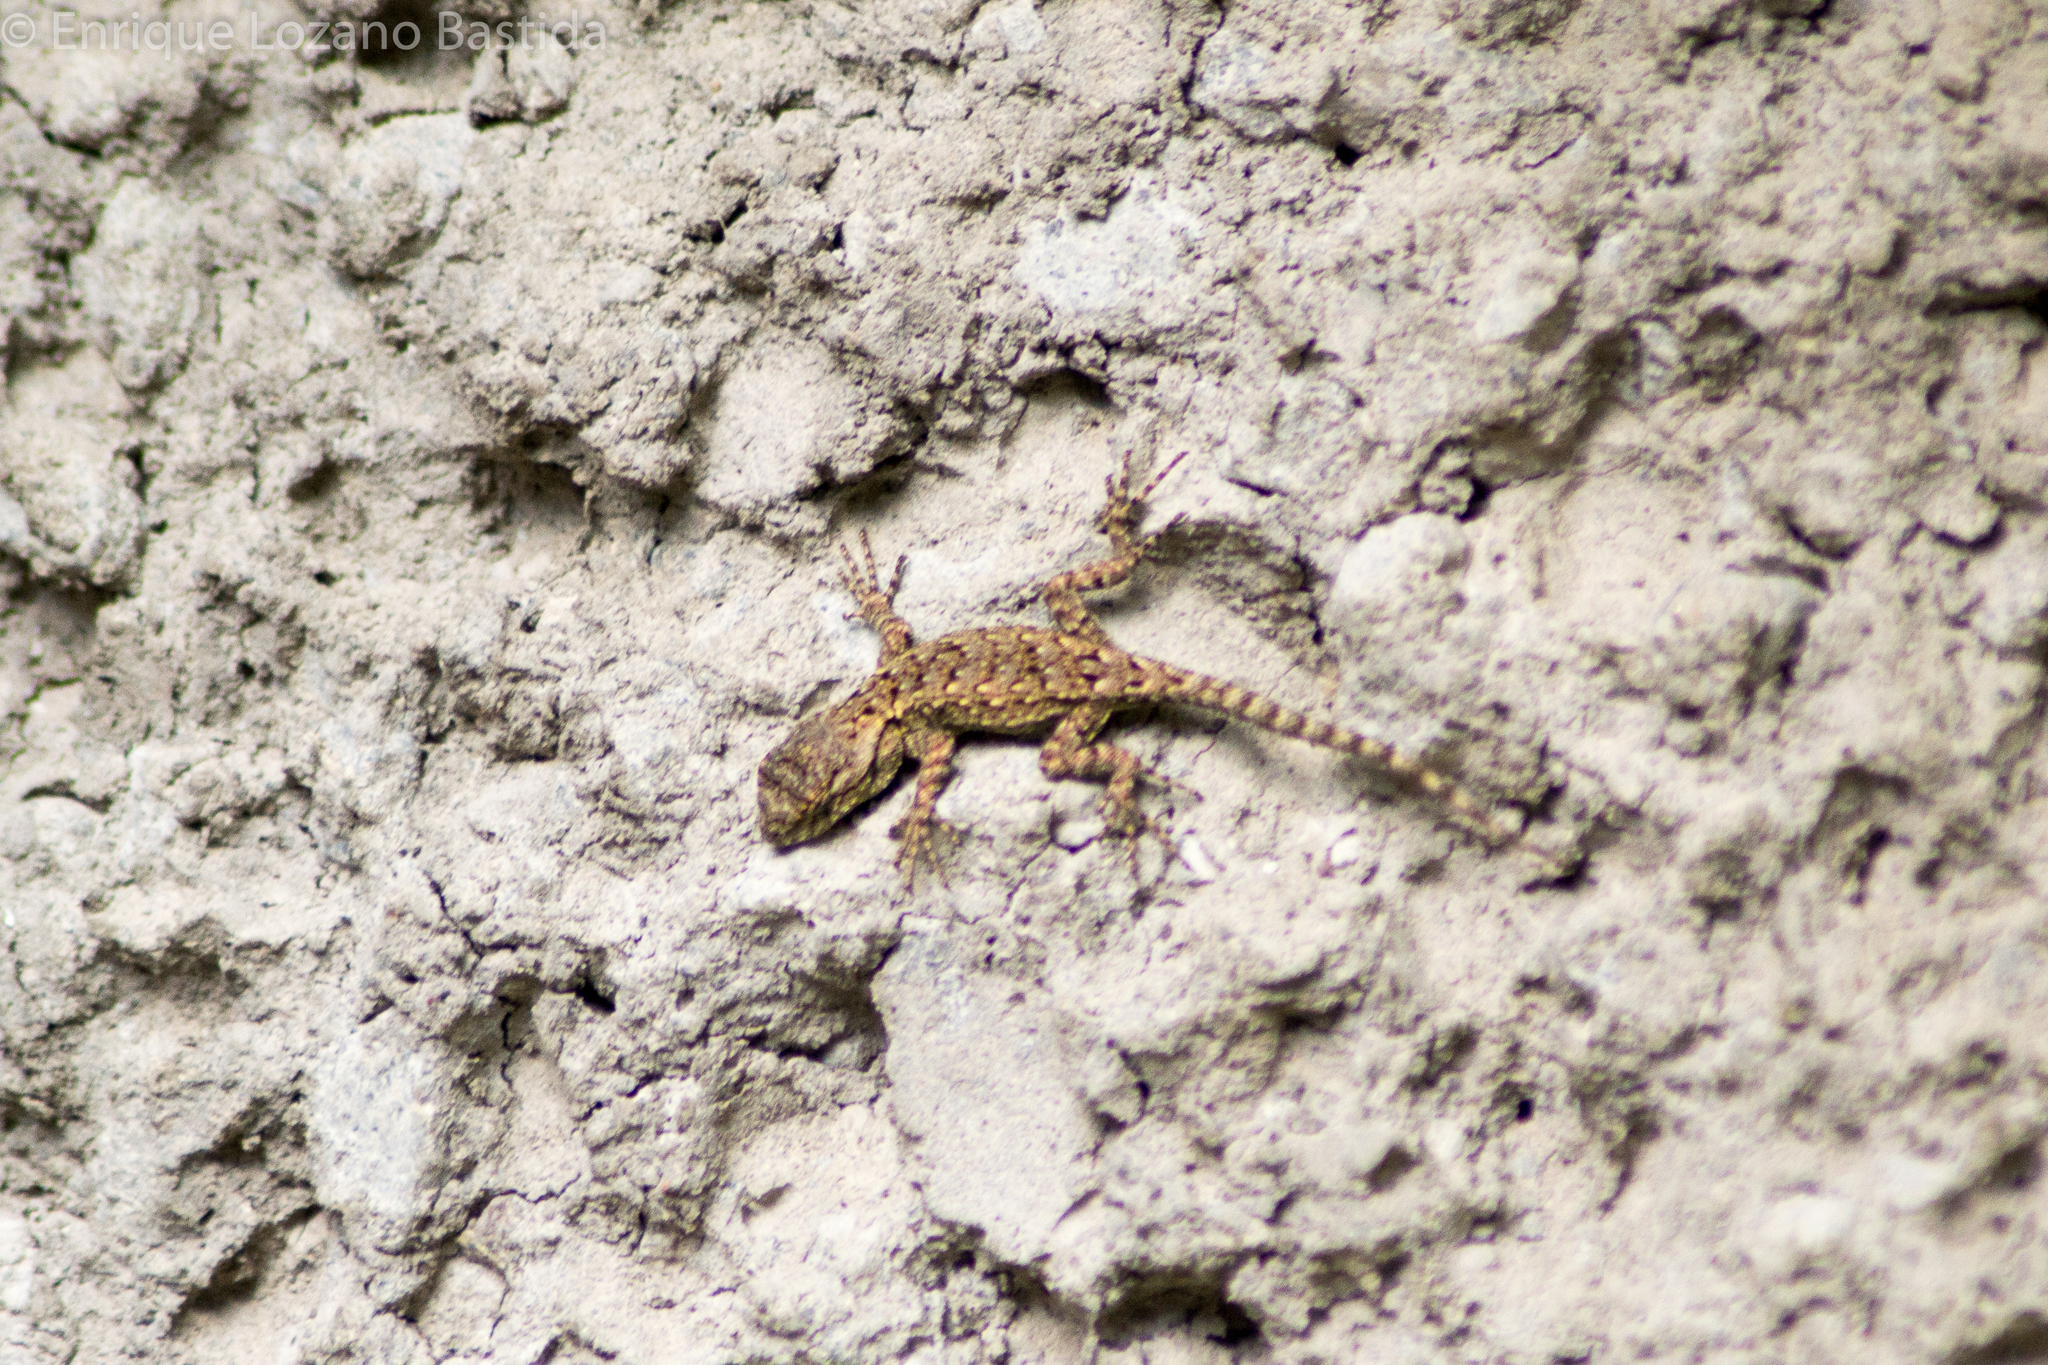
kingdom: Animalia
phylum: Chordata
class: Squamata
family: Phrynosomatidae
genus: Sceloporus
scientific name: Sceloporus grammicus
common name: Mesquite lizard
